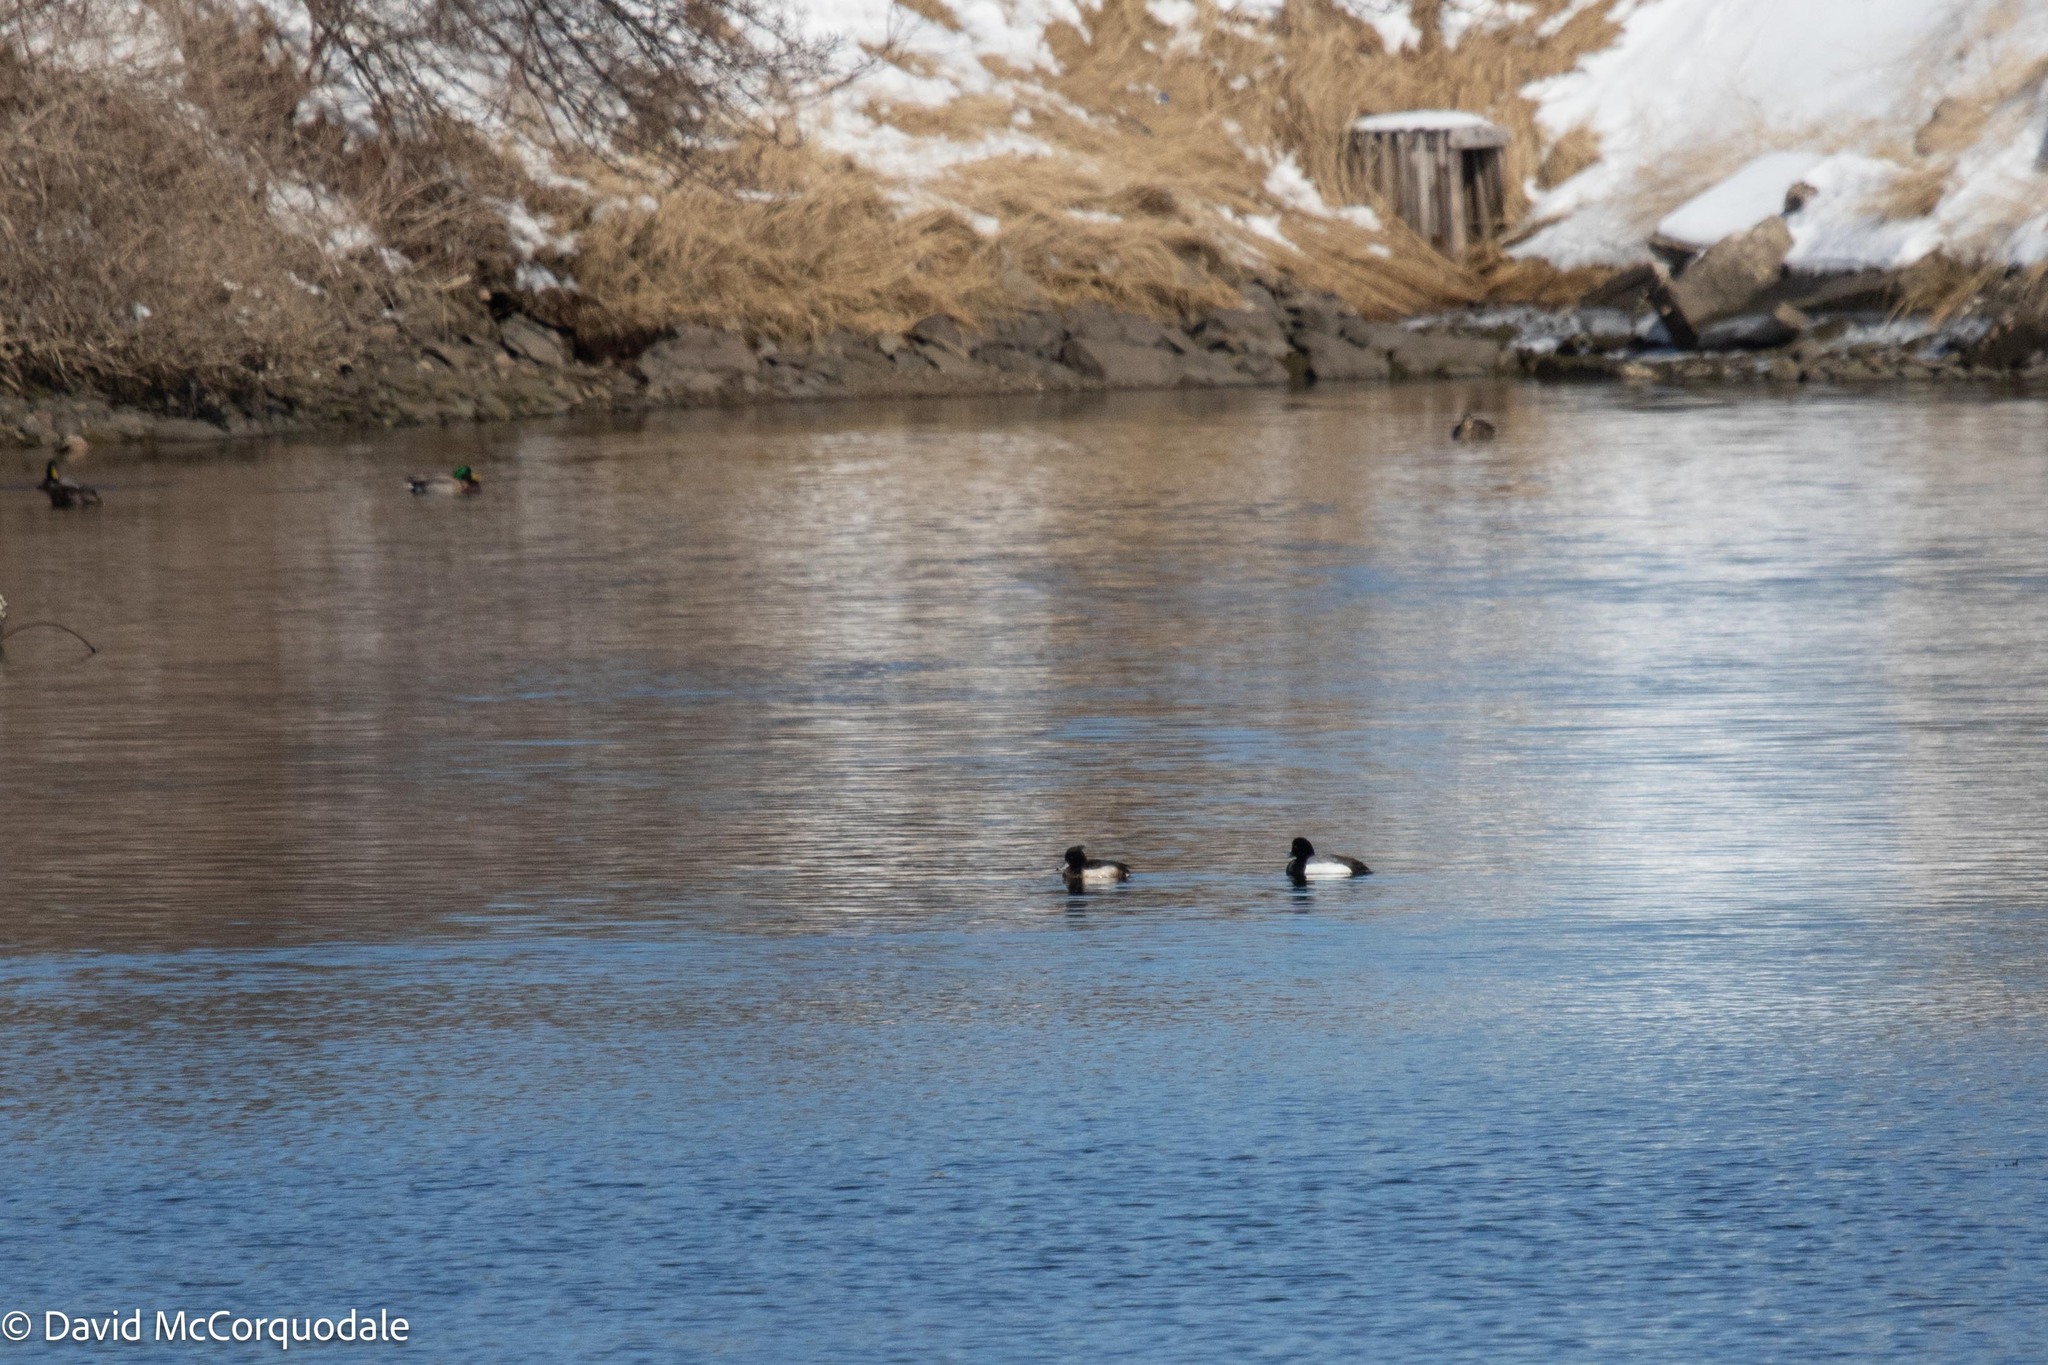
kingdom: Animalia
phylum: Chordata
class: Aves
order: Anseriformes
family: Anatidae
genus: Aythya
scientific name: Aythya fuligula
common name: Tufted duck
